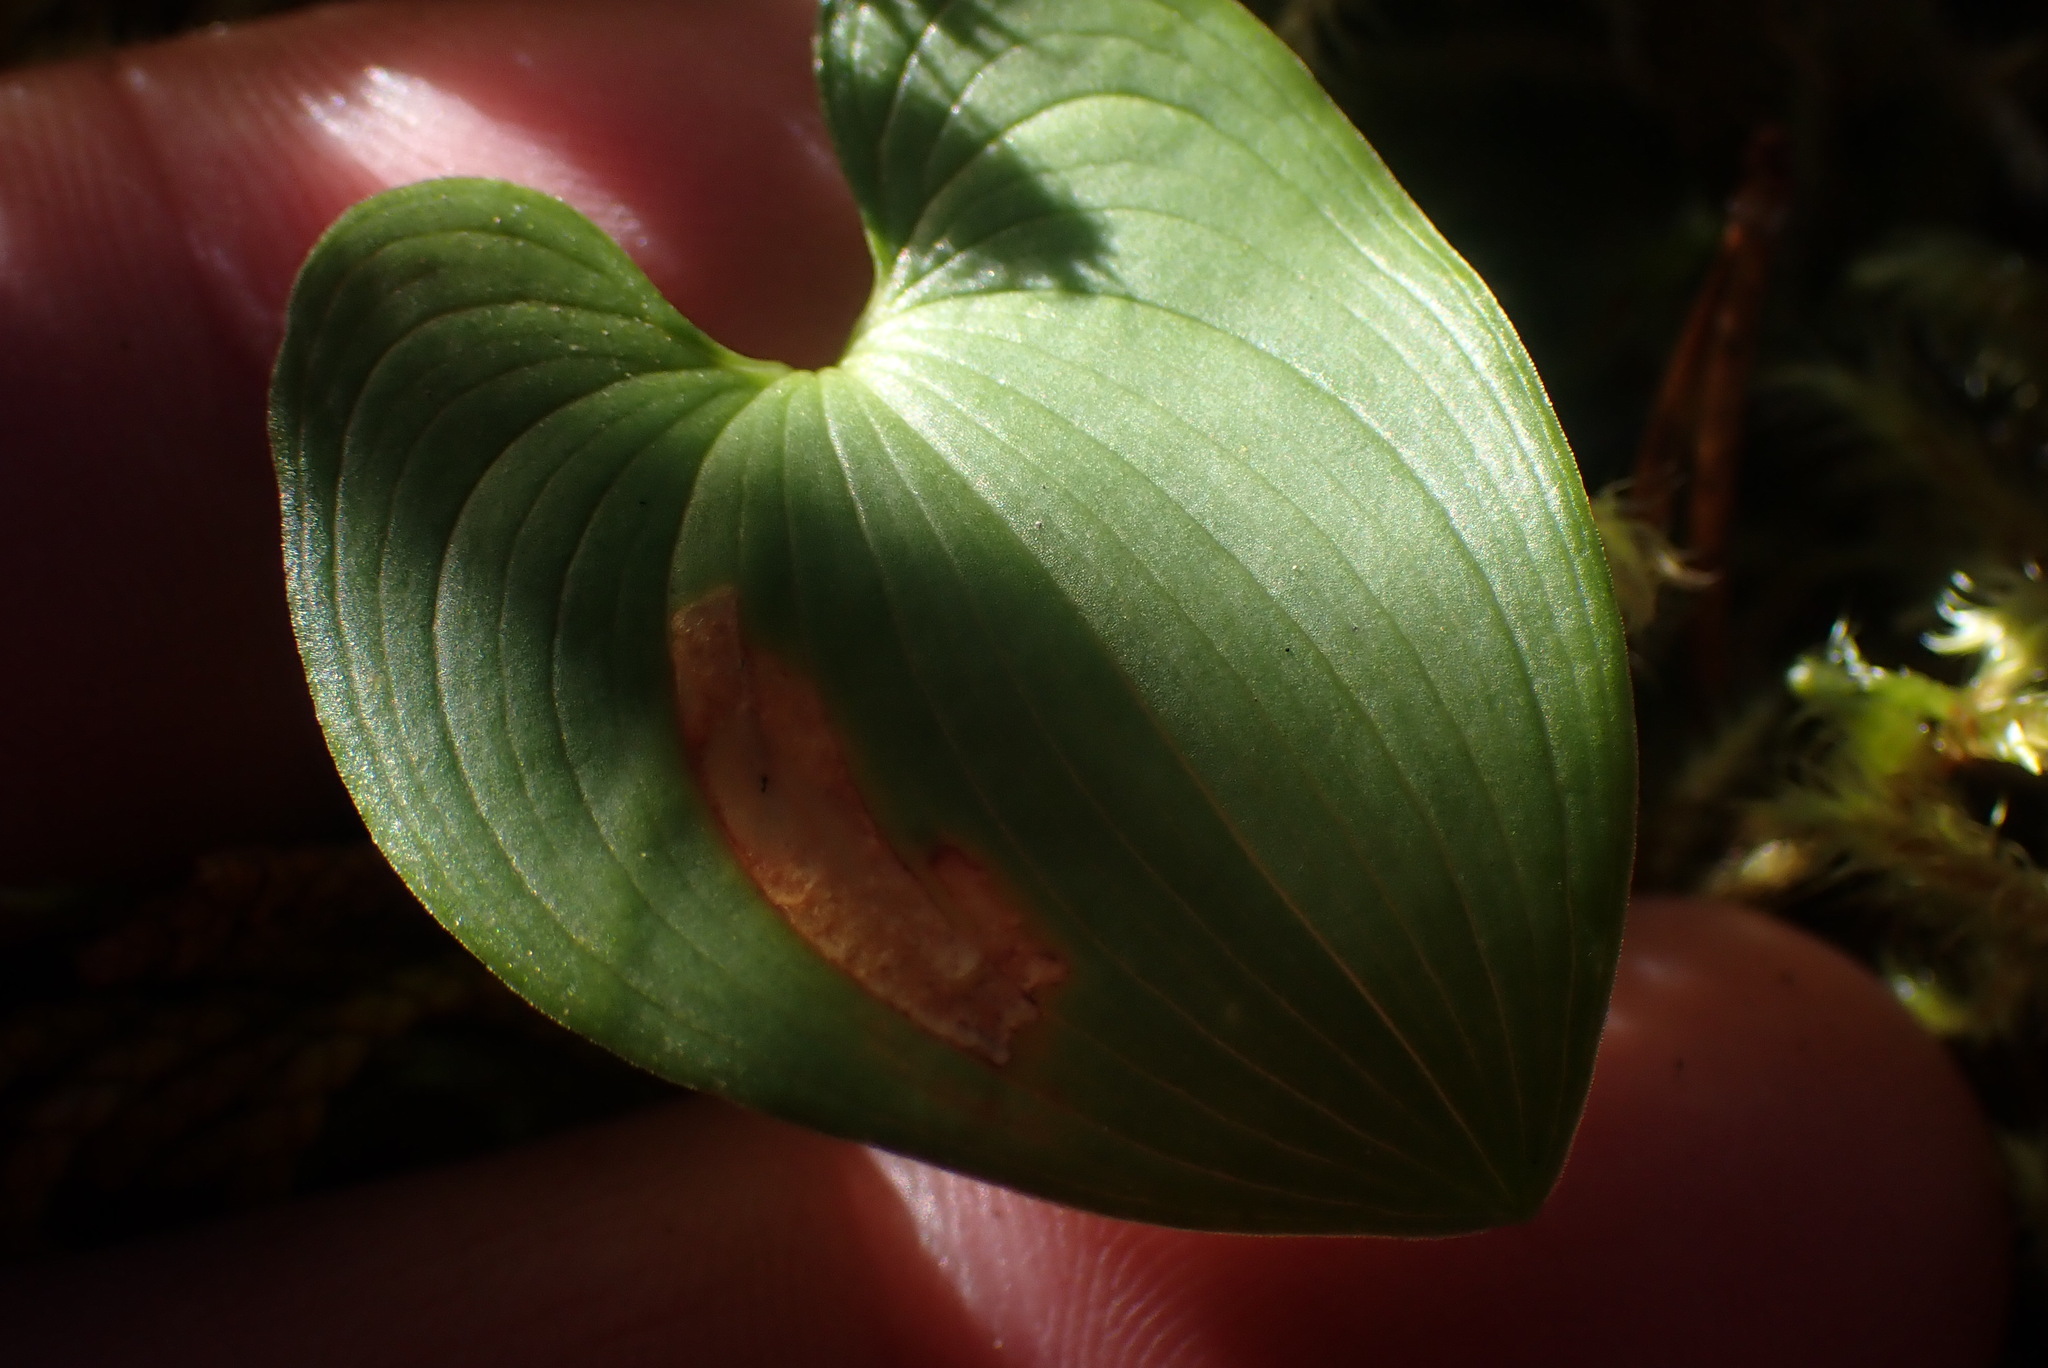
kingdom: Plantae
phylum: Tracheophyta
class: Liliopsida
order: Asparagales
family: Asparagaceae
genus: Maianthemum
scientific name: Maianthemum dilatatum
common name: False lily-of-the-valley
